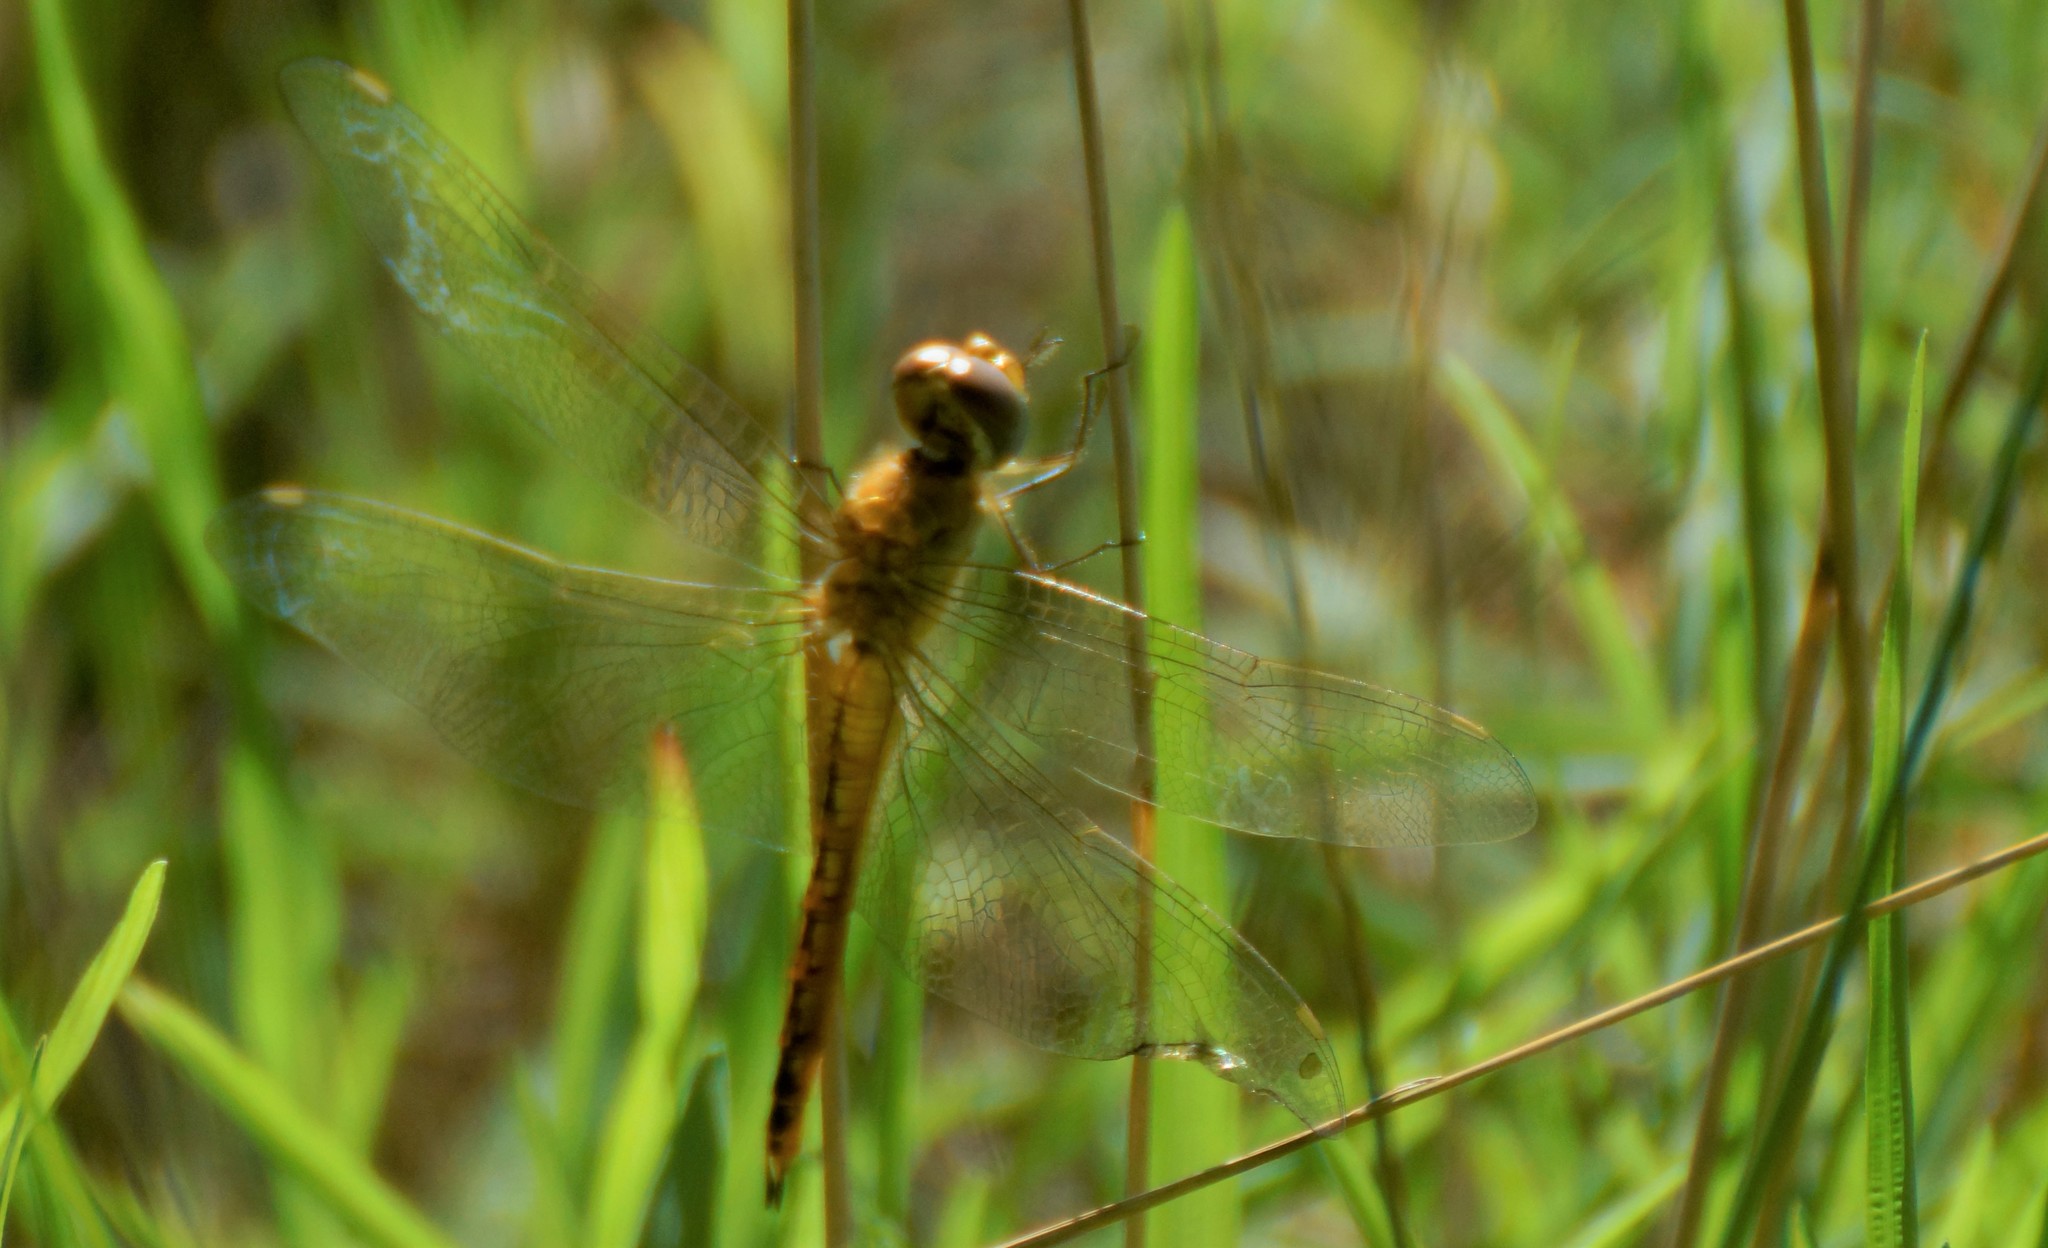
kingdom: Animalia
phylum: Arthropoda
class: Insecta
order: Odonata
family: Libellulidae
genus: Pantala
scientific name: Pantala flavescens
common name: Wandering glider
